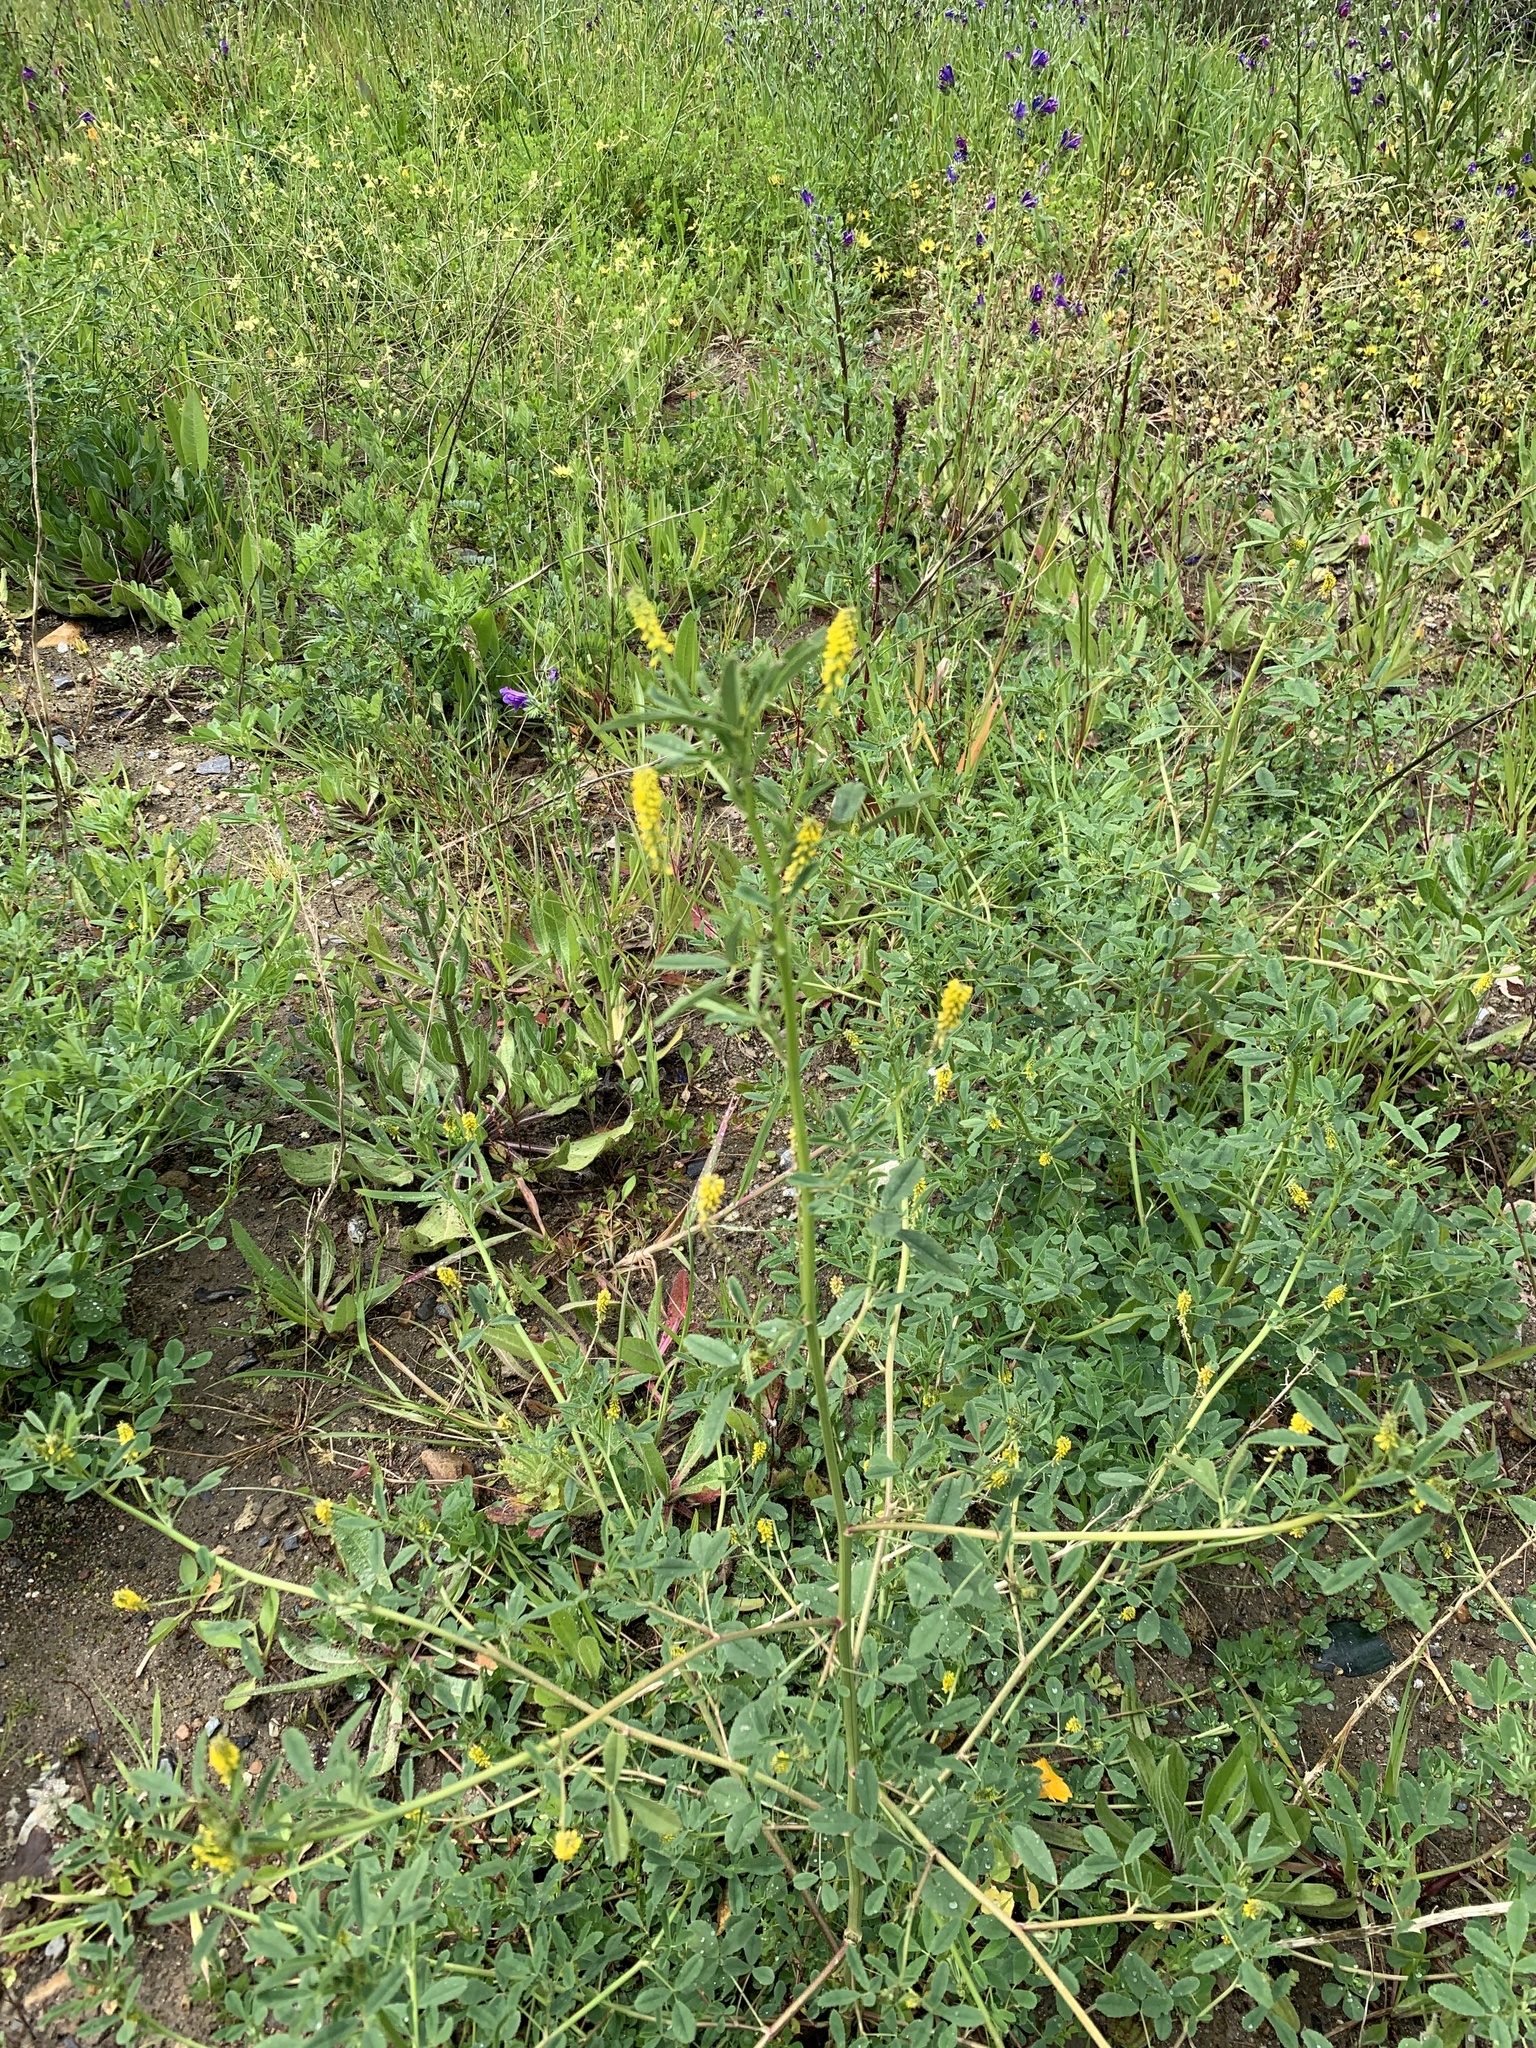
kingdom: Plantae
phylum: Tracheophyta
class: Magnoliopsida
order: Fabales
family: Fabaceae
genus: Melilotus
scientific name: Melilotus indicus
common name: Small melilot
